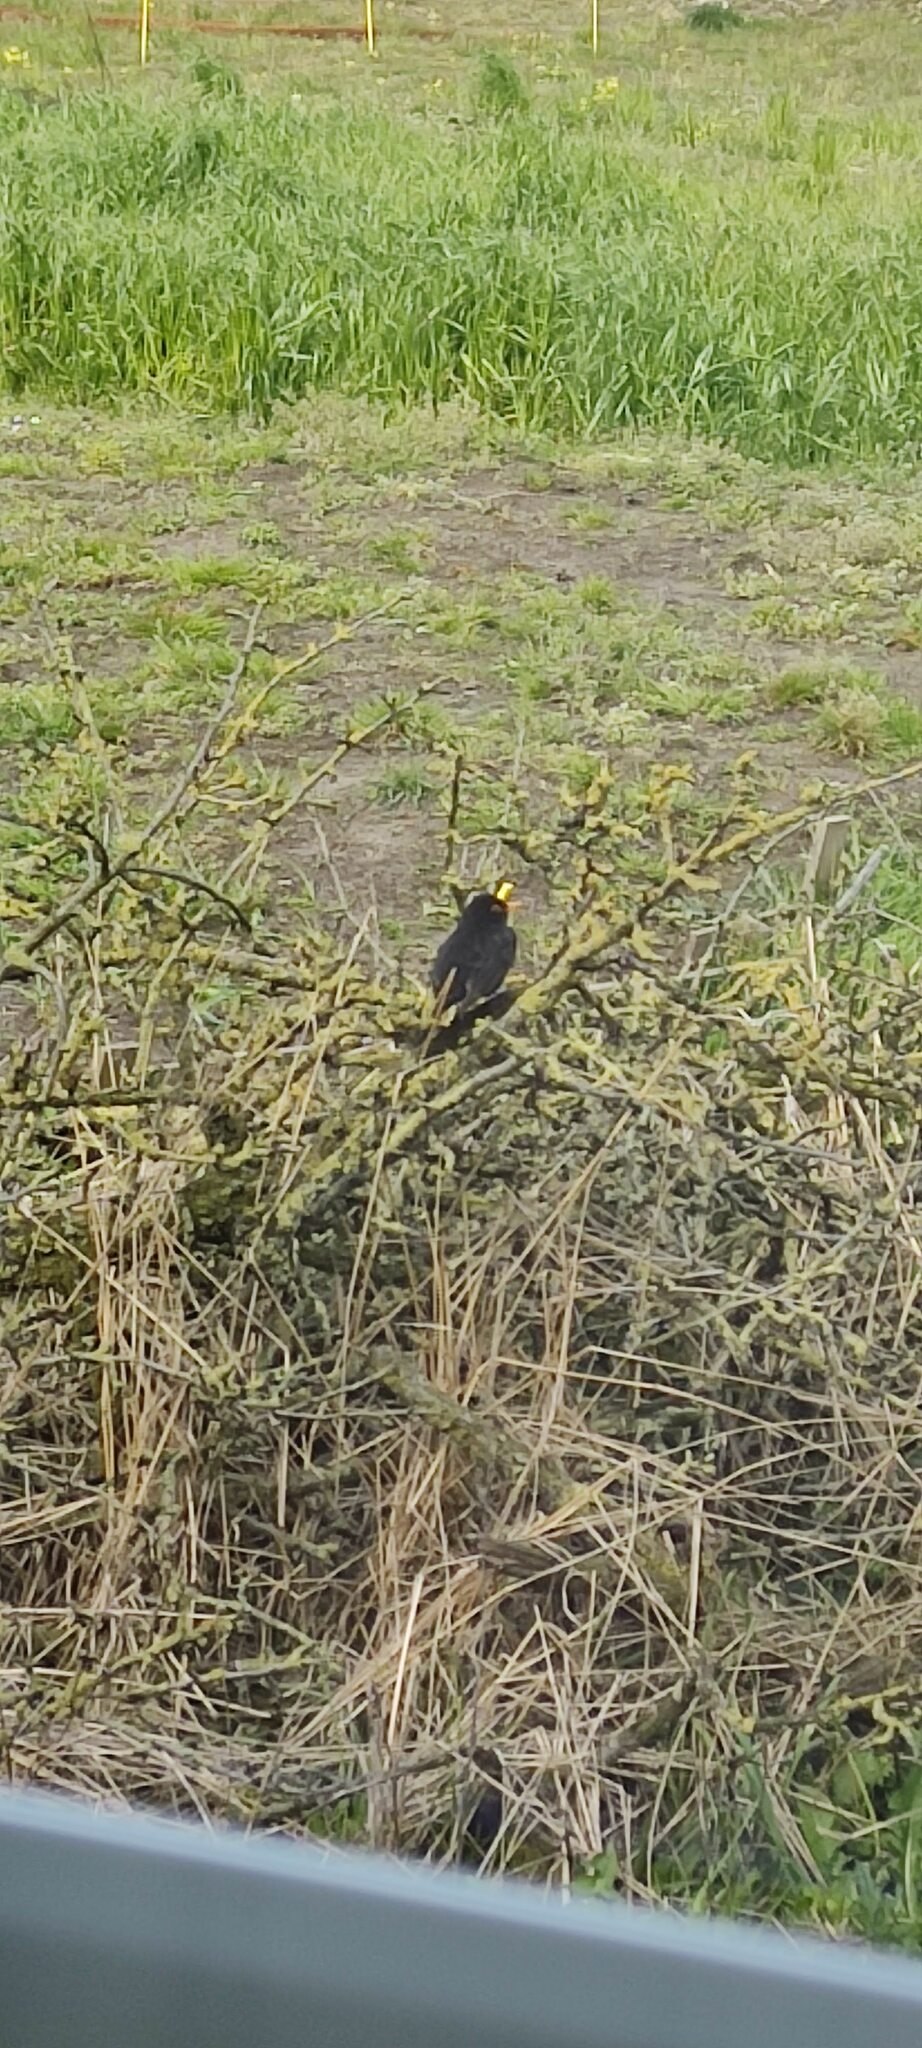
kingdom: Animalia
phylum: Chordata
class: Aves
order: Passeriformes
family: Turdidae
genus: Turdus
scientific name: Turdus merula
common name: Common blackbird
